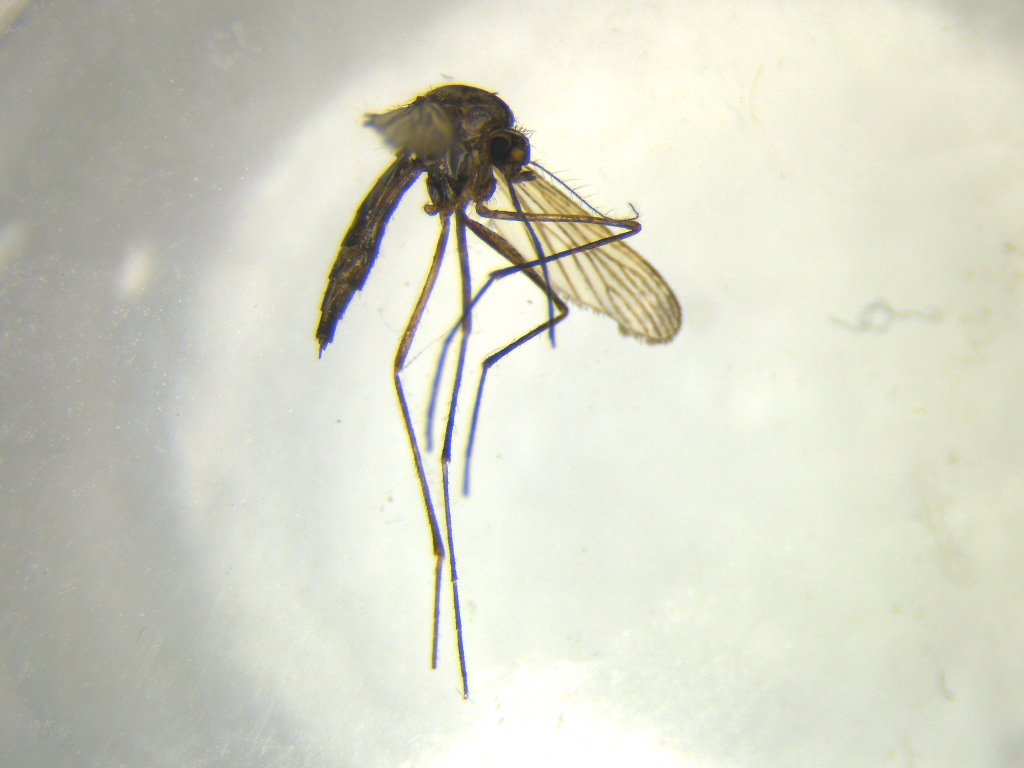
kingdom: Animalia
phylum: Arthropoda
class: Insecta
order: Diptera
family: Culicidae
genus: Aedes
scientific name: Aedes antipodeus
